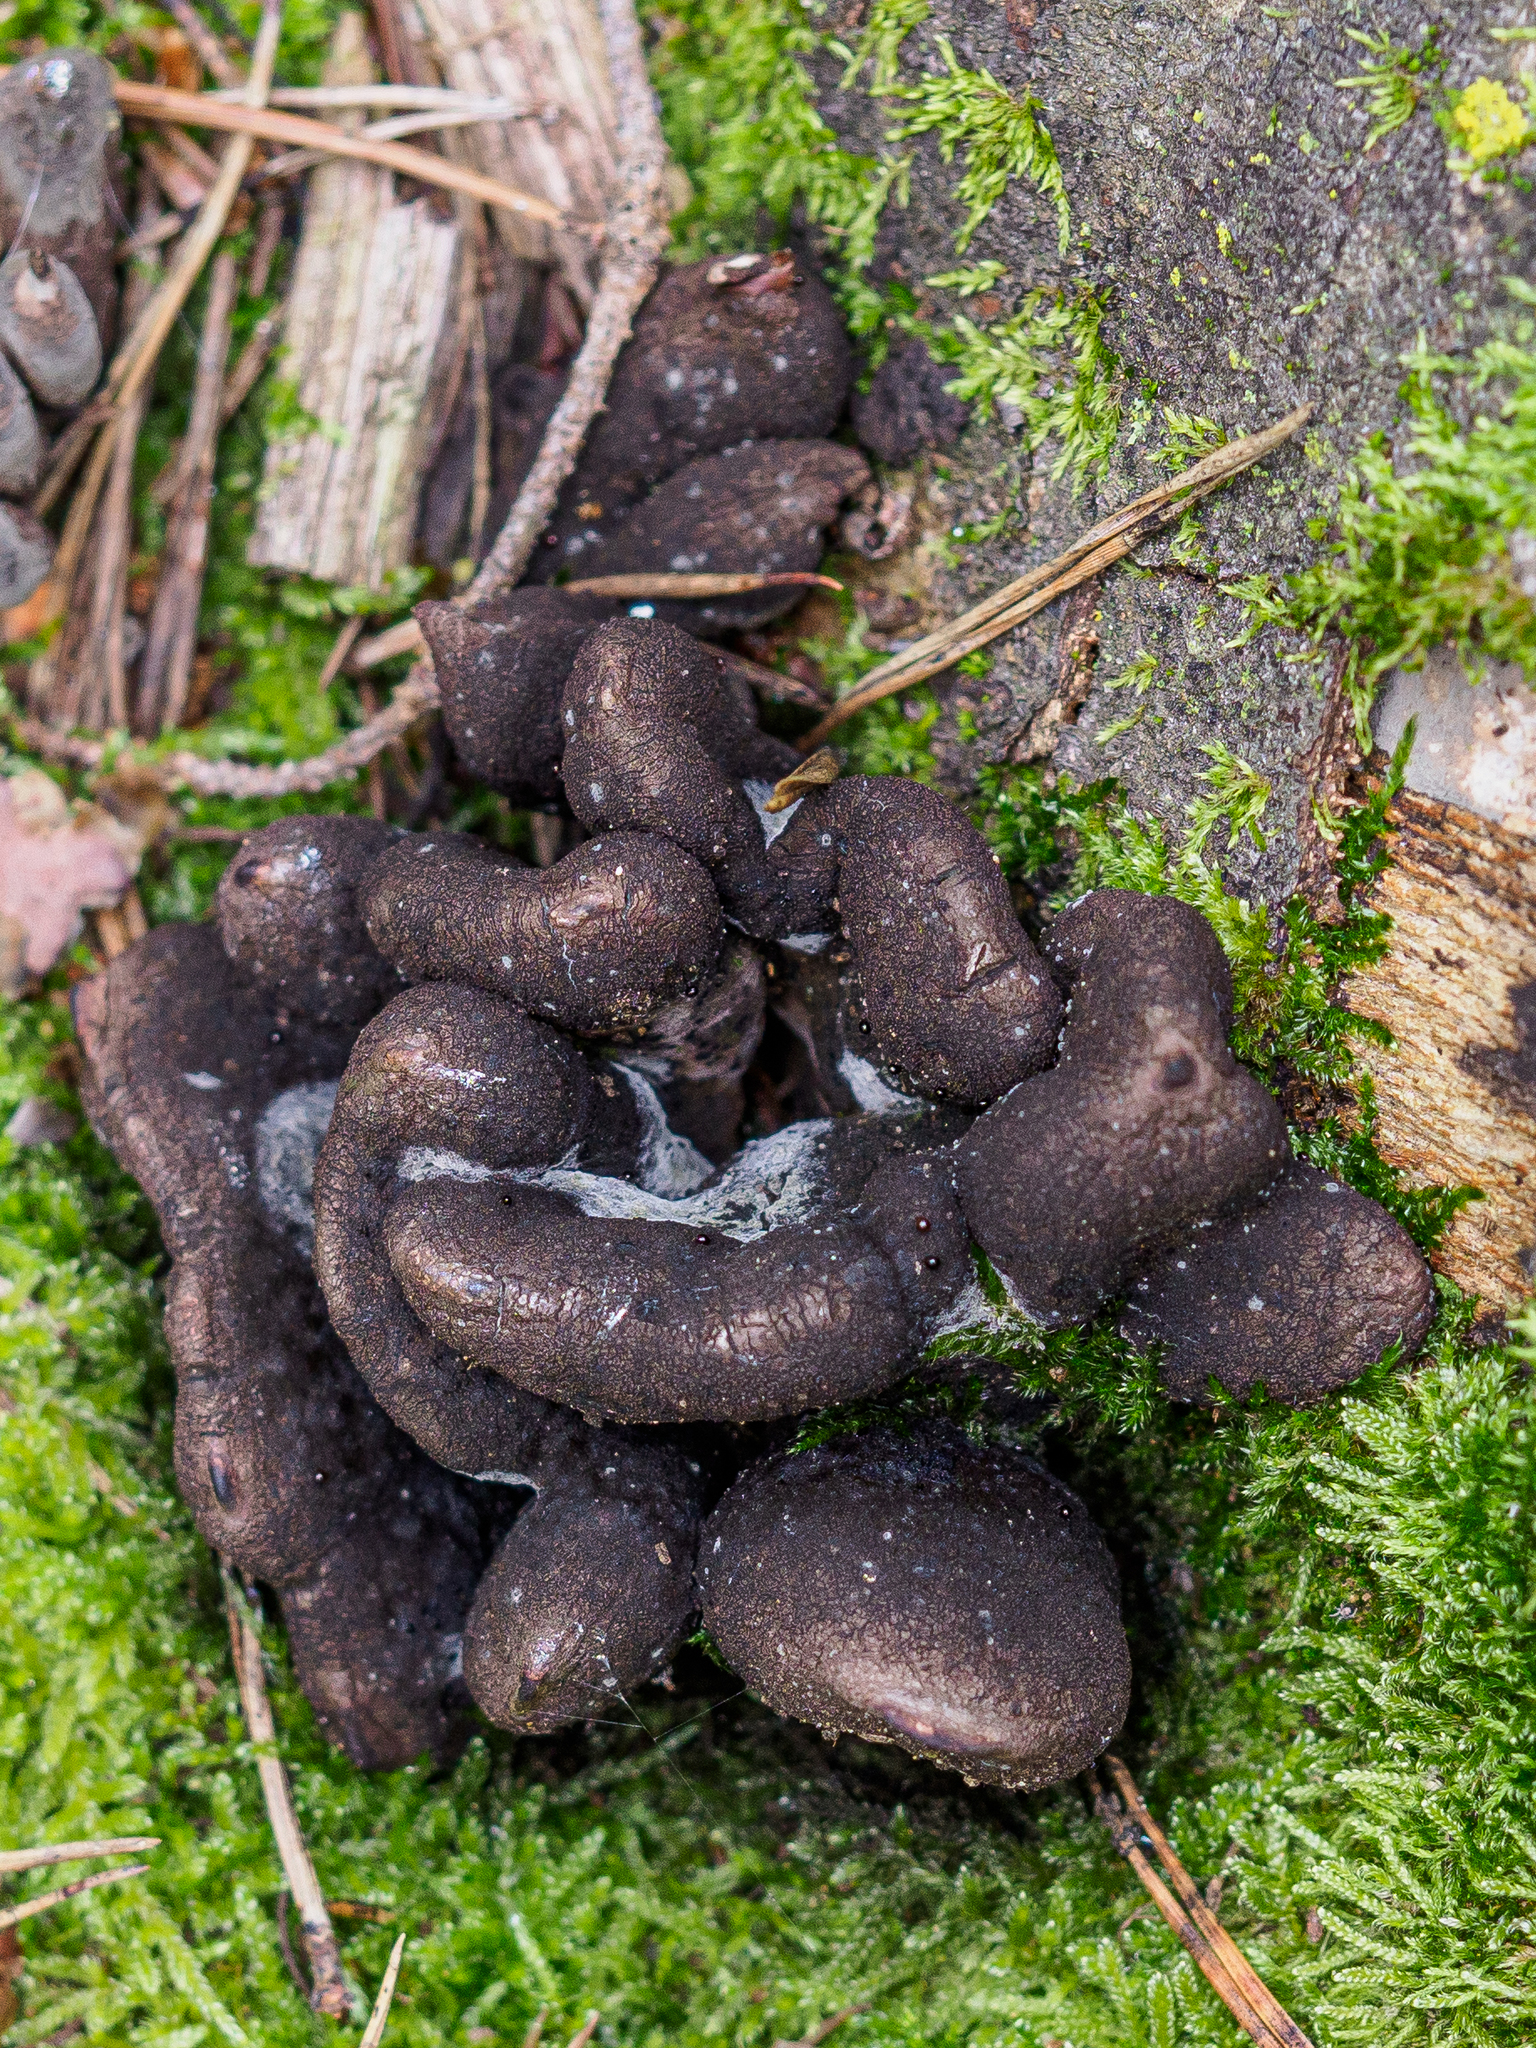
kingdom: Fungi
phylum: Ascomycota
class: Sordariomycetes
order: Xylariales
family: Xylariaceae
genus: Xylaria
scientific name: Xylaria polymorpha
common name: Dead man's fingers
